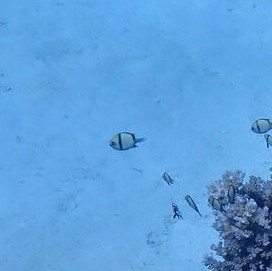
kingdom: Animalia
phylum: Chordata
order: Perciformes
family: Pomacentridae
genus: Dascyllus
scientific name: Dascyllus reticulatus
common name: Reticulated dascyllus
